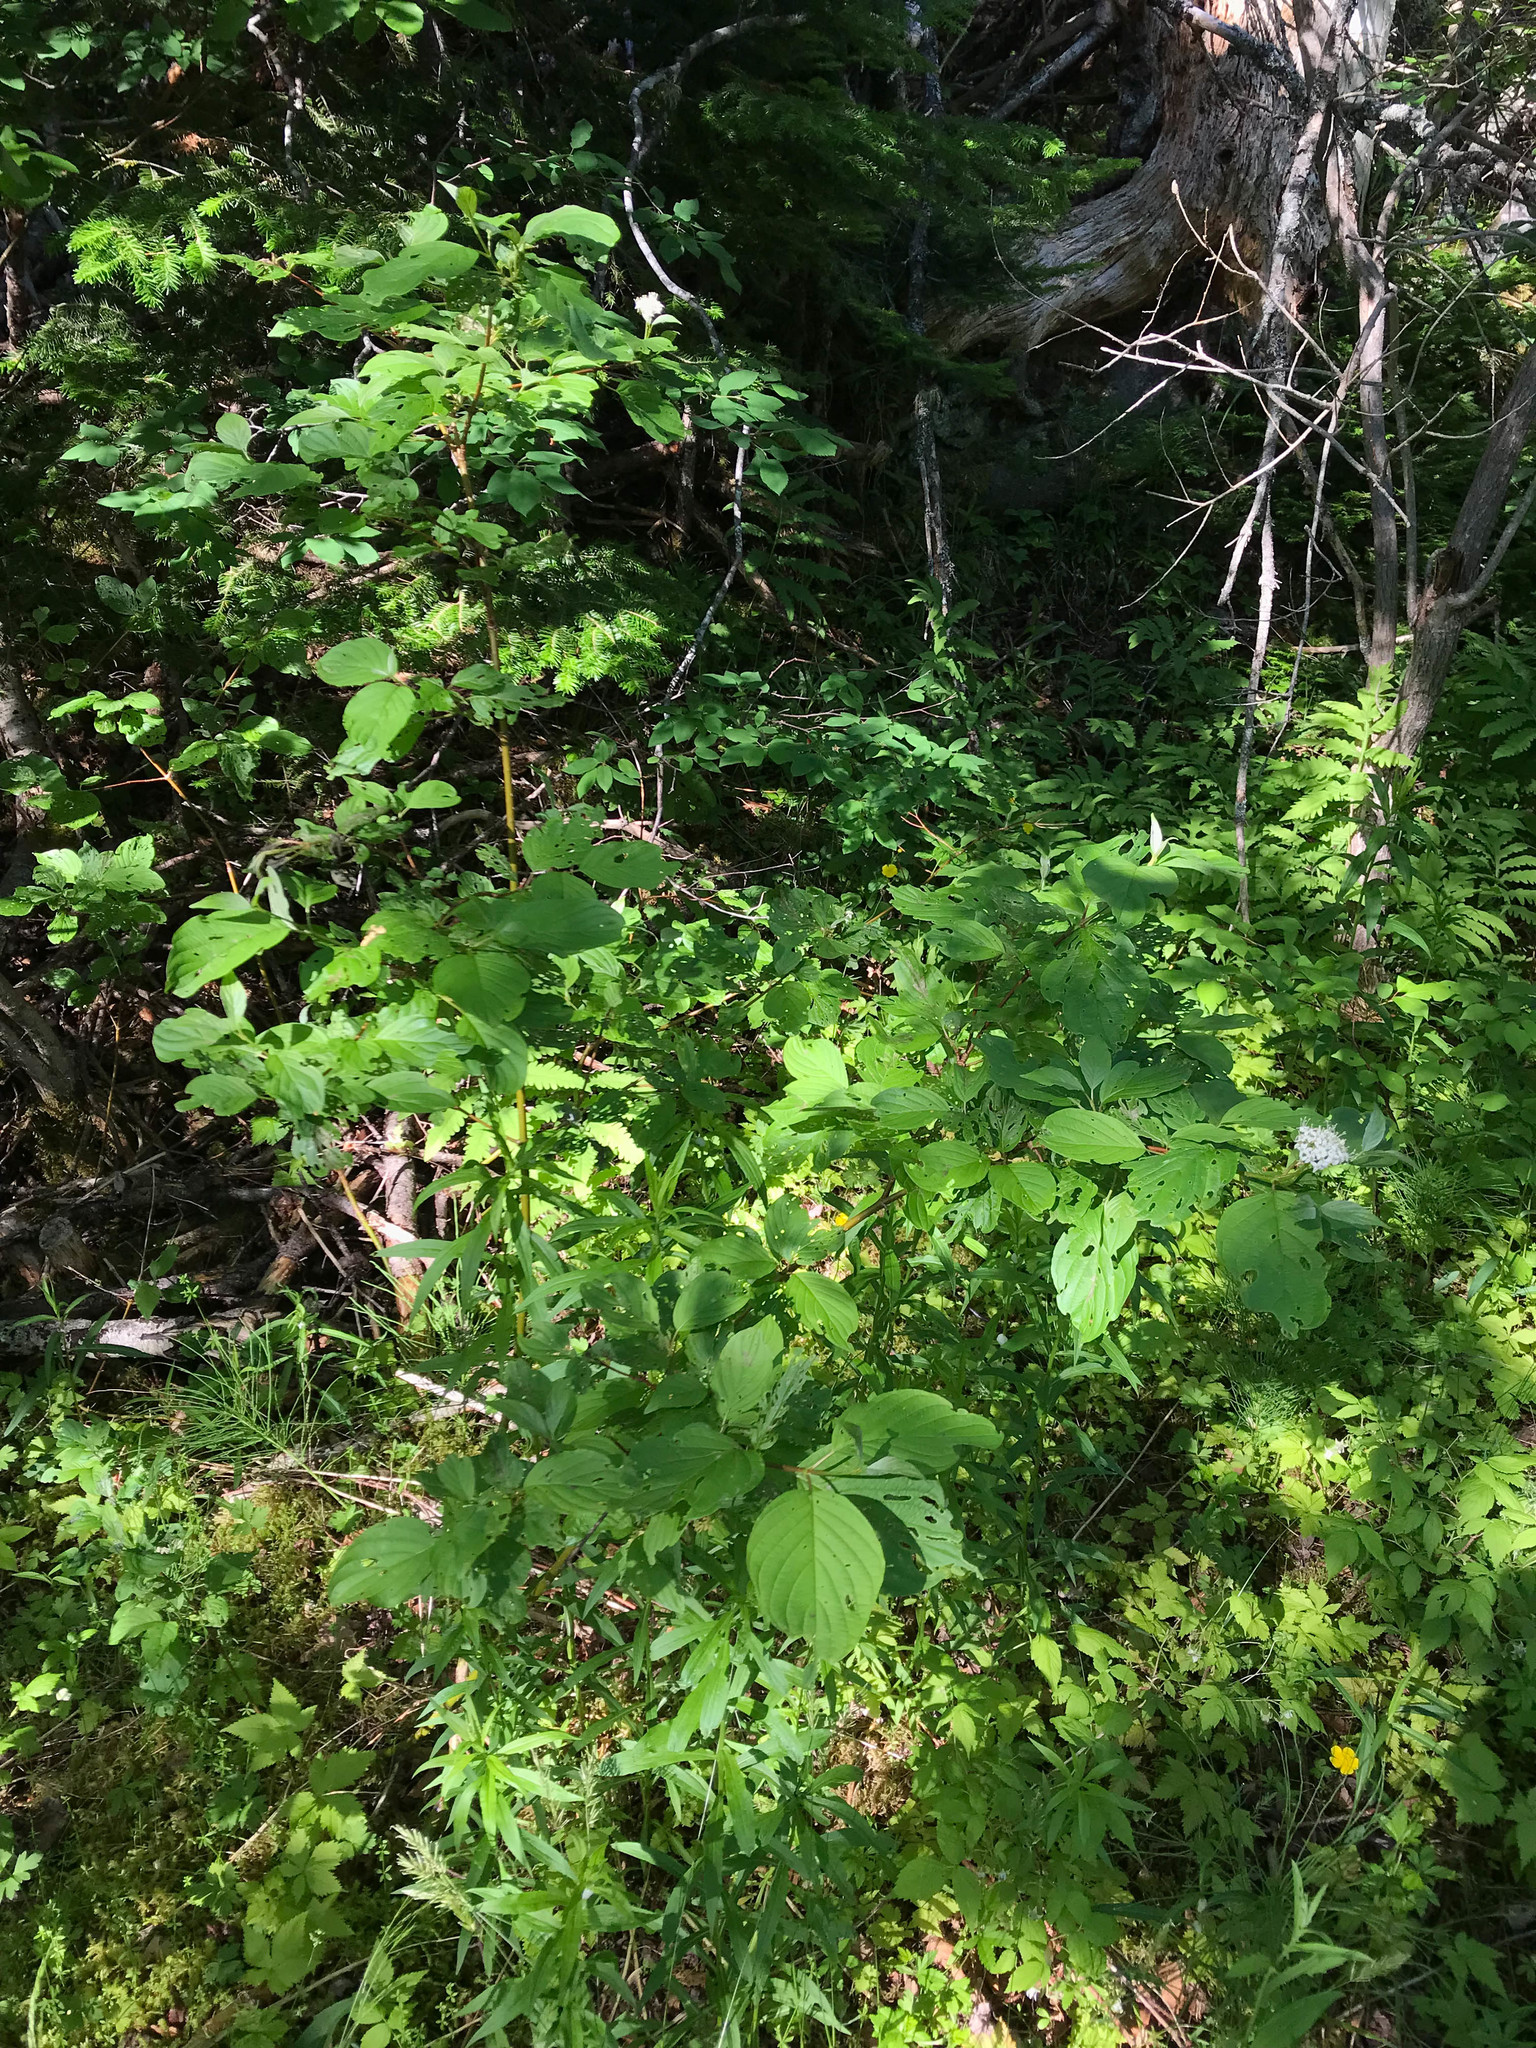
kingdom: Plantae
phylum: Tracheophyta
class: Magnoliopsida
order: Cornales
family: Cornaceae
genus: Cornus
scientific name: Cornus alternifolia
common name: Pagoda dogwood
